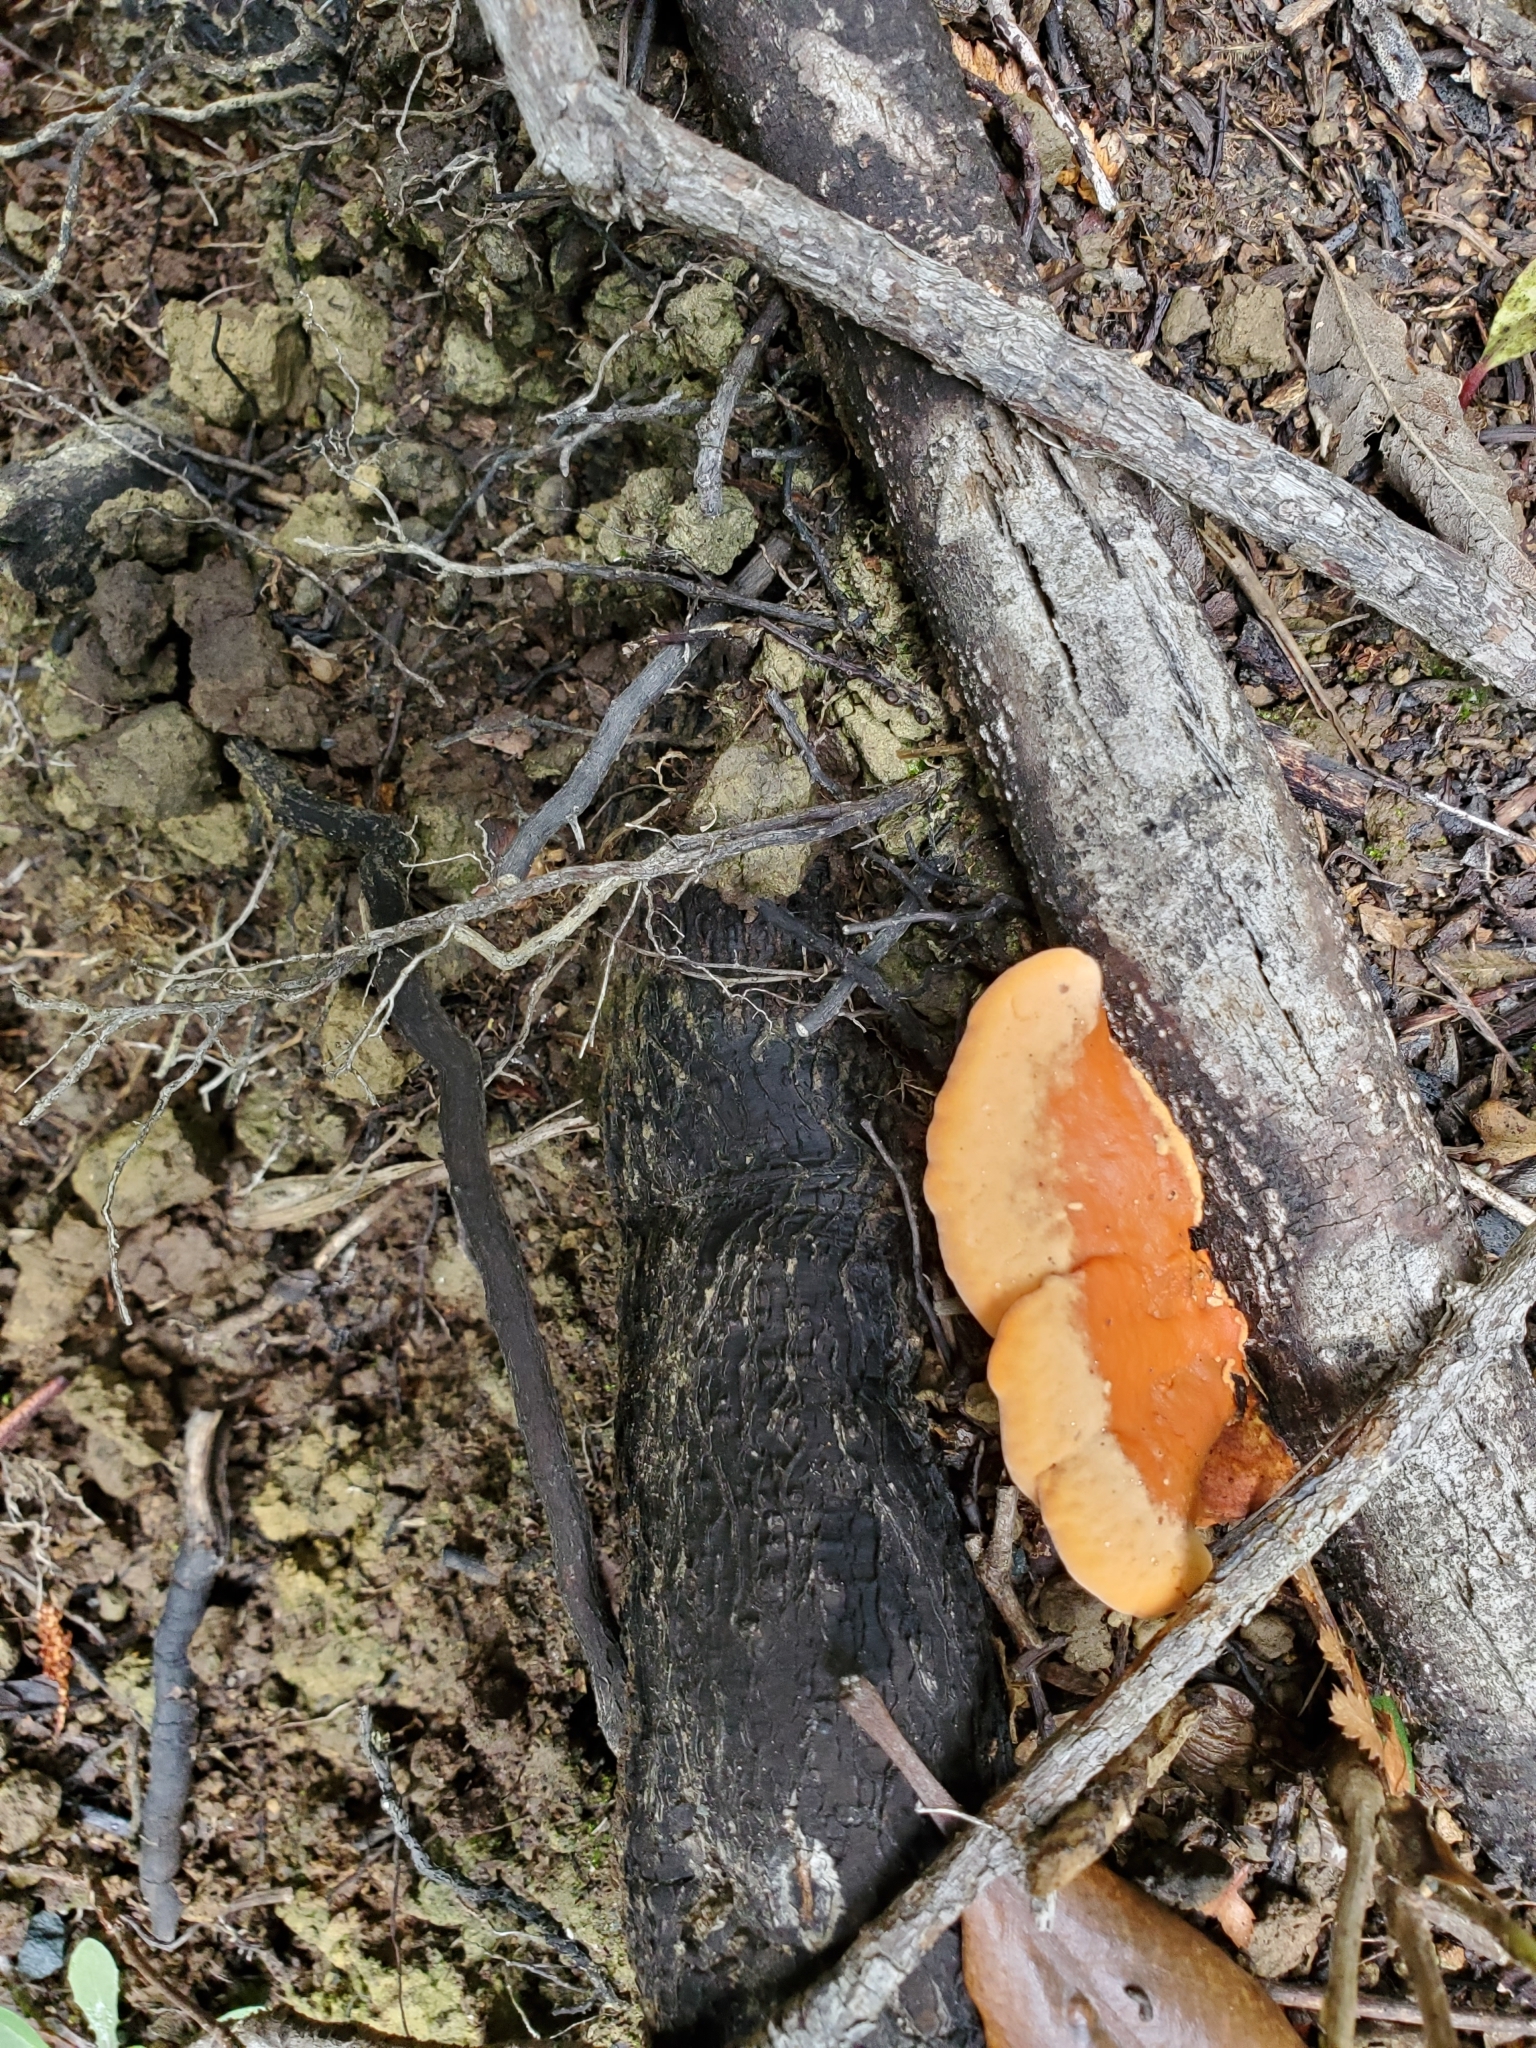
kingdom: Fungi
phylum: Basidiomycota
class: Agaricomycetes
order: Polyporales
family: Polyporaceae
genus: Trametes
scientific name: Trametes coccinea
